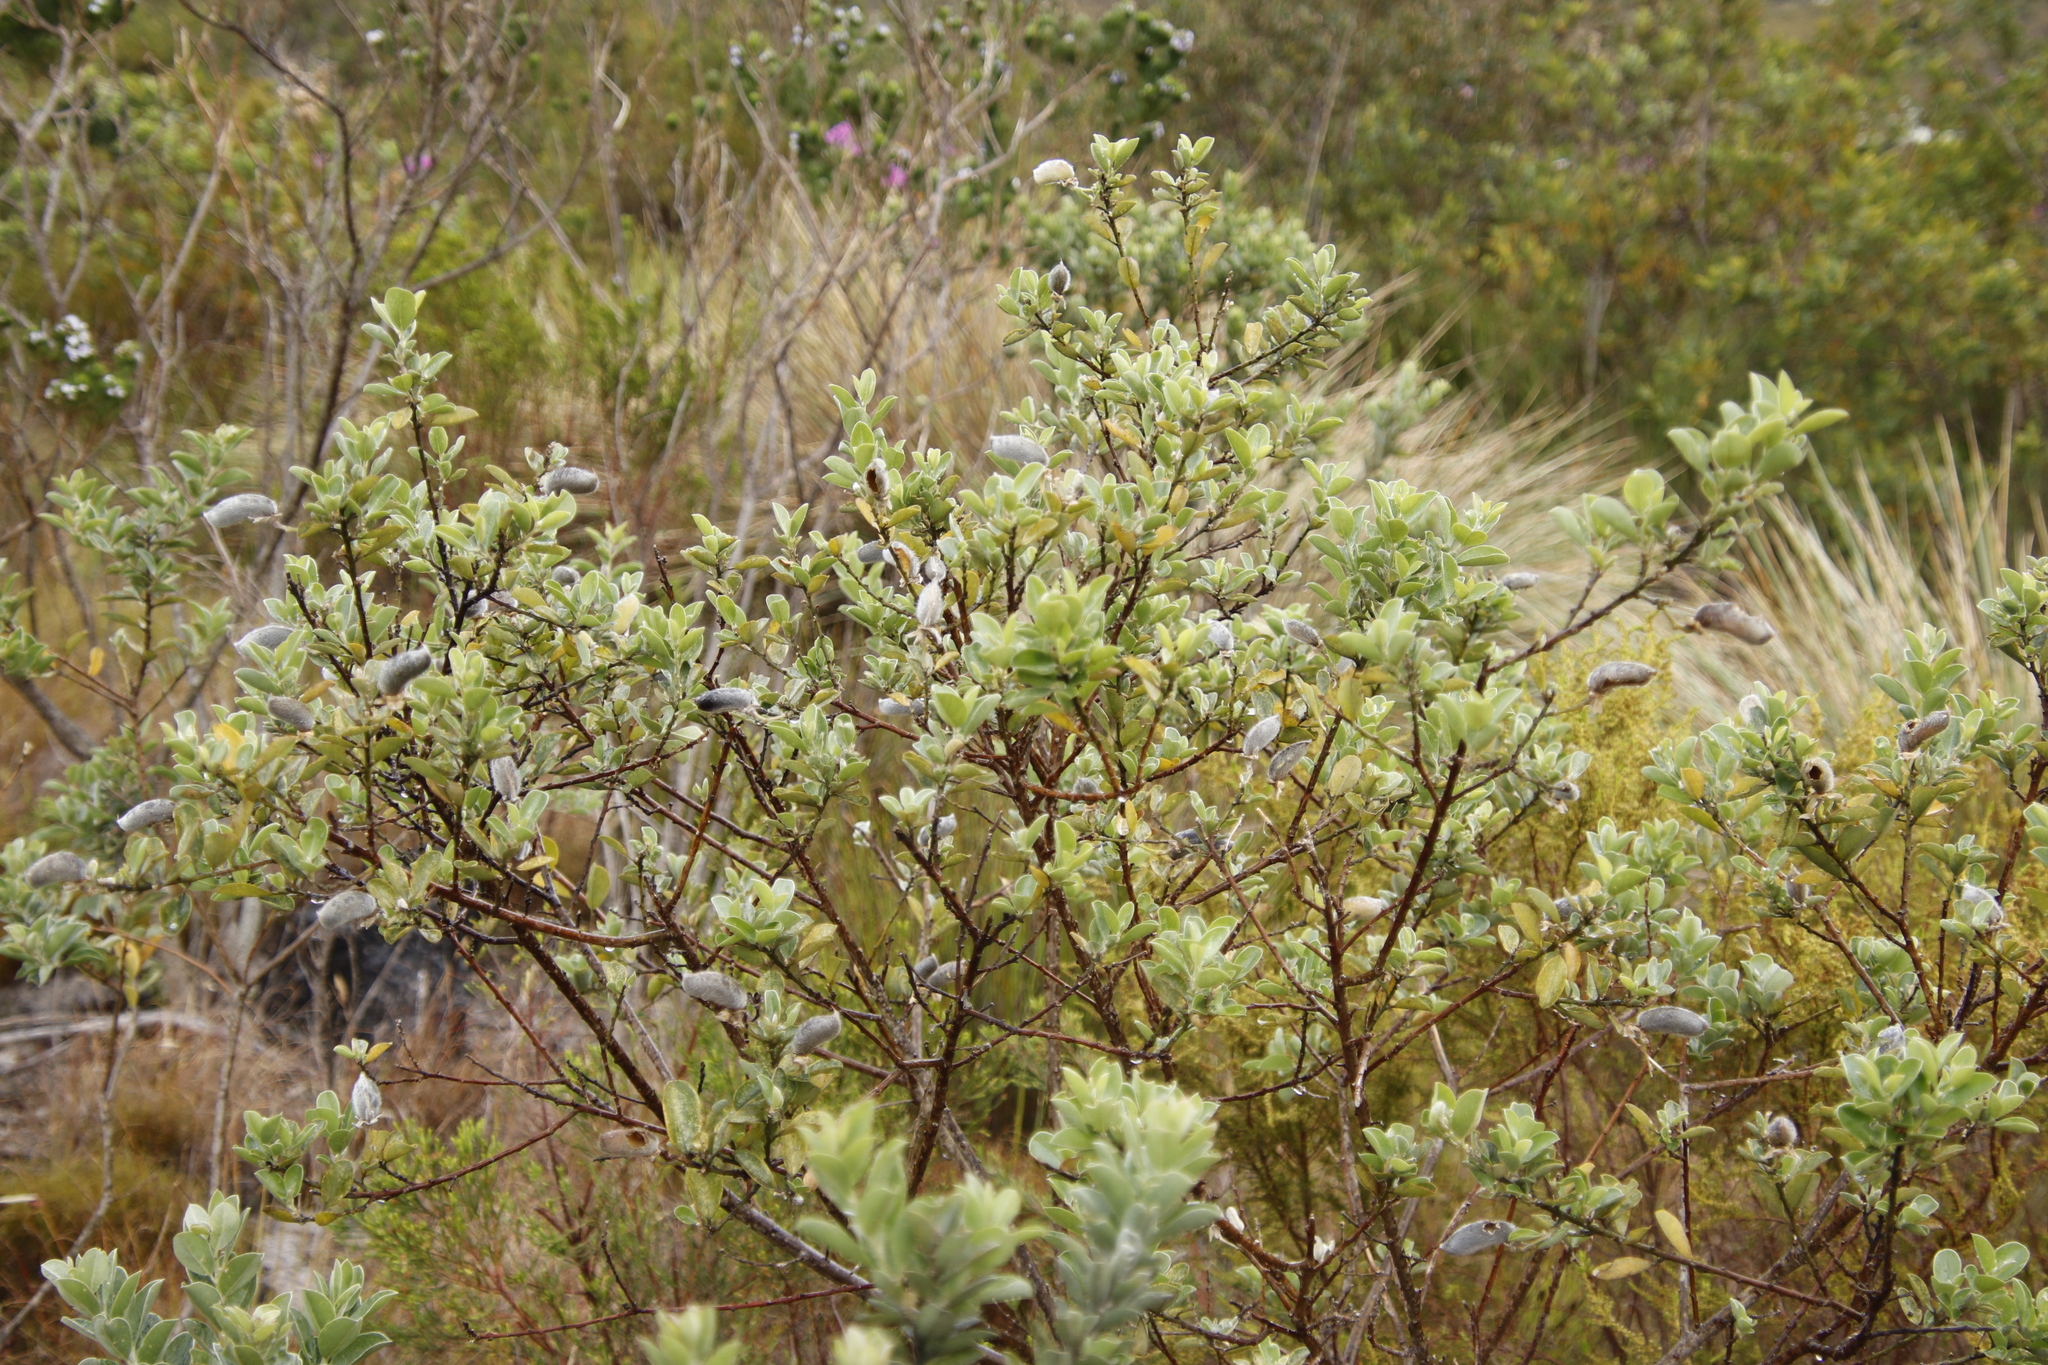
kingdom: Plantae
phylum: Tracheophyta
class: Magnoliopsida
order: Fabales
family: Fabaceae
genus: Podalyria
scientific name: Podalyria calyptrata
